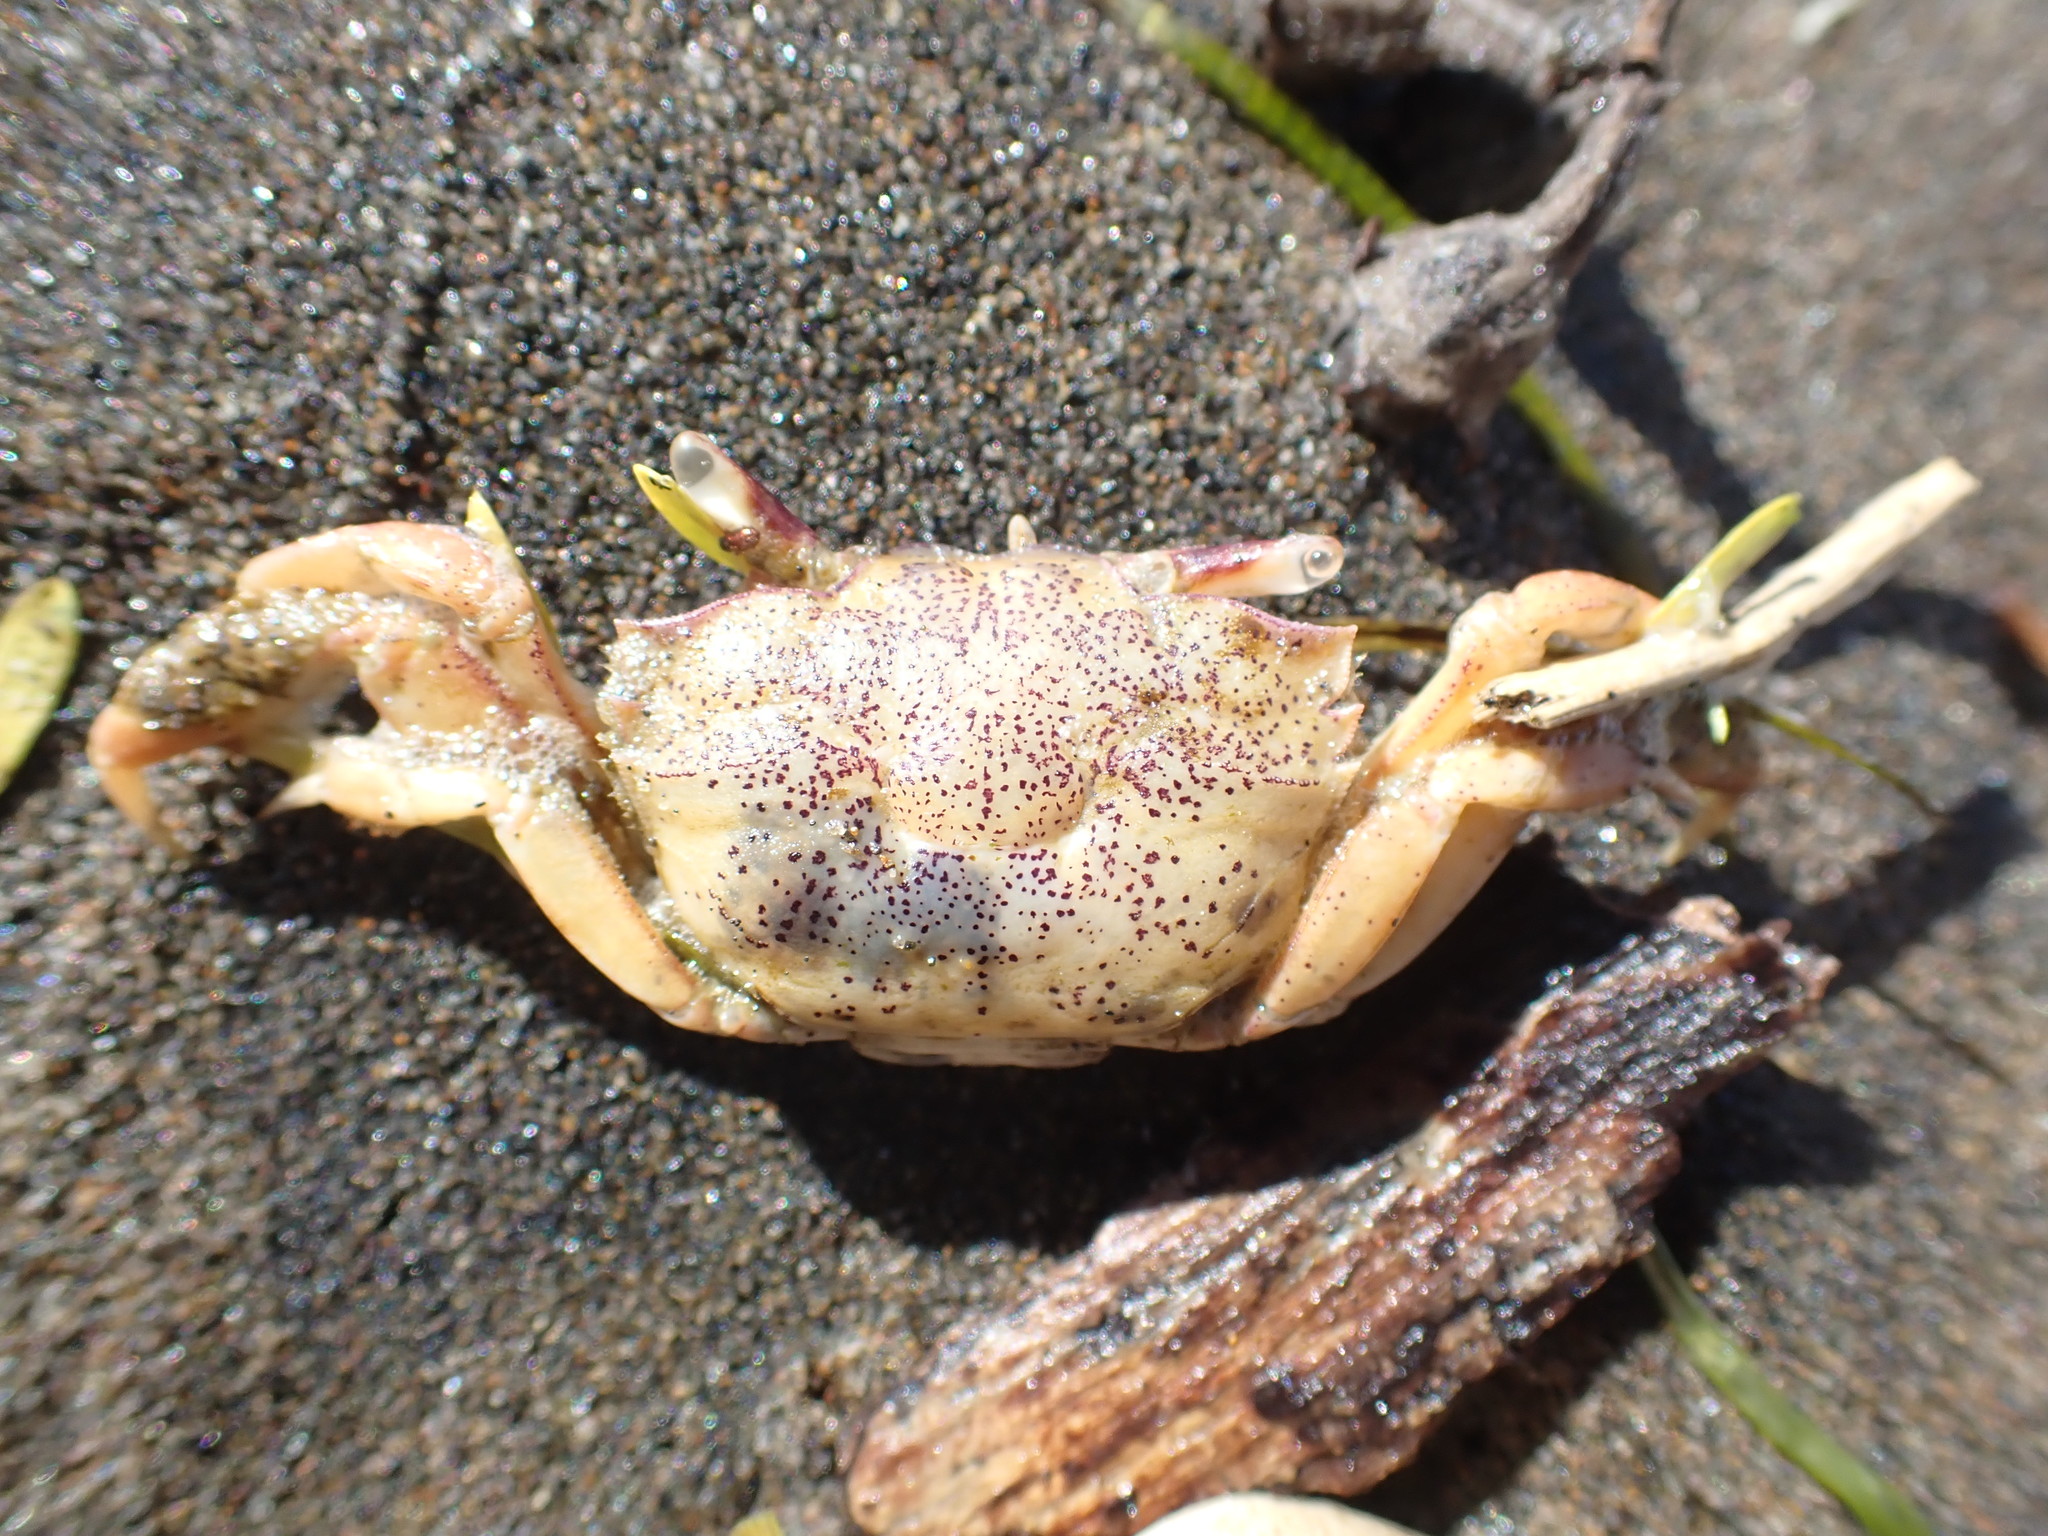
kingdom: Animalia
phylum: Arthropoda
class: Malacostraca
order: Decapoda
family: Macrophthalmidae
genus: Hemiplax
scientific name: Hemiplax hirtipes
